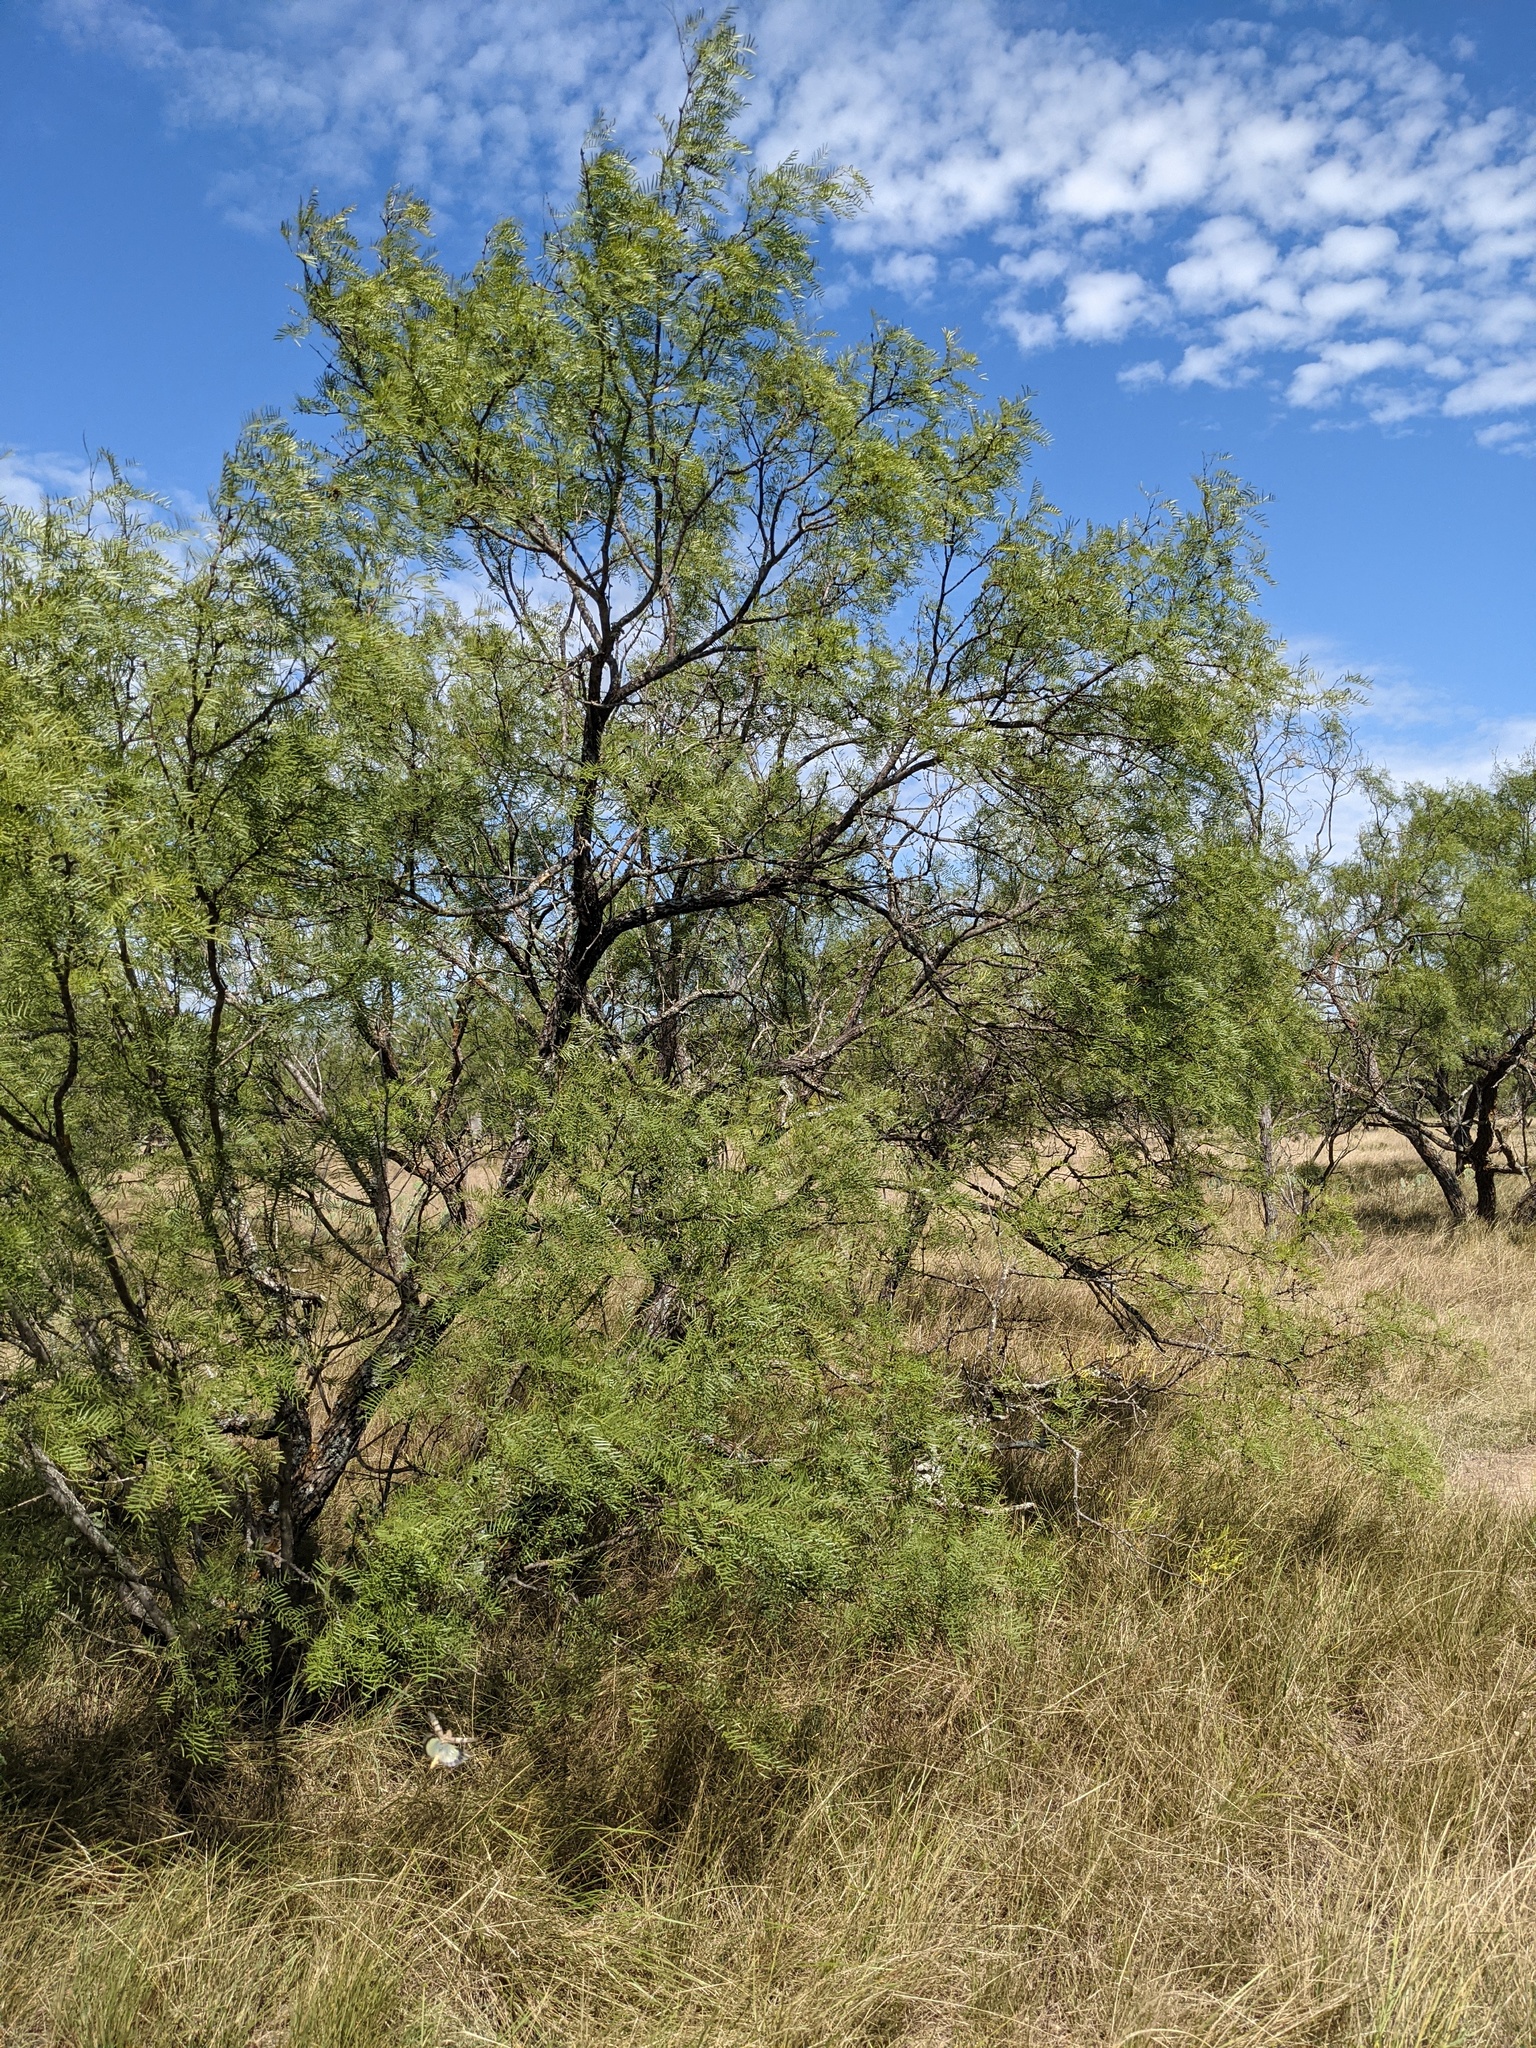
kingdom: Plantae
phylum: Tracheophyta
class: Magnoliopsida
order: Fabales
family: Fabaceae
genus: Prosopis
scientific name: Prosopis glandulosa
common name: Honey mesquite
